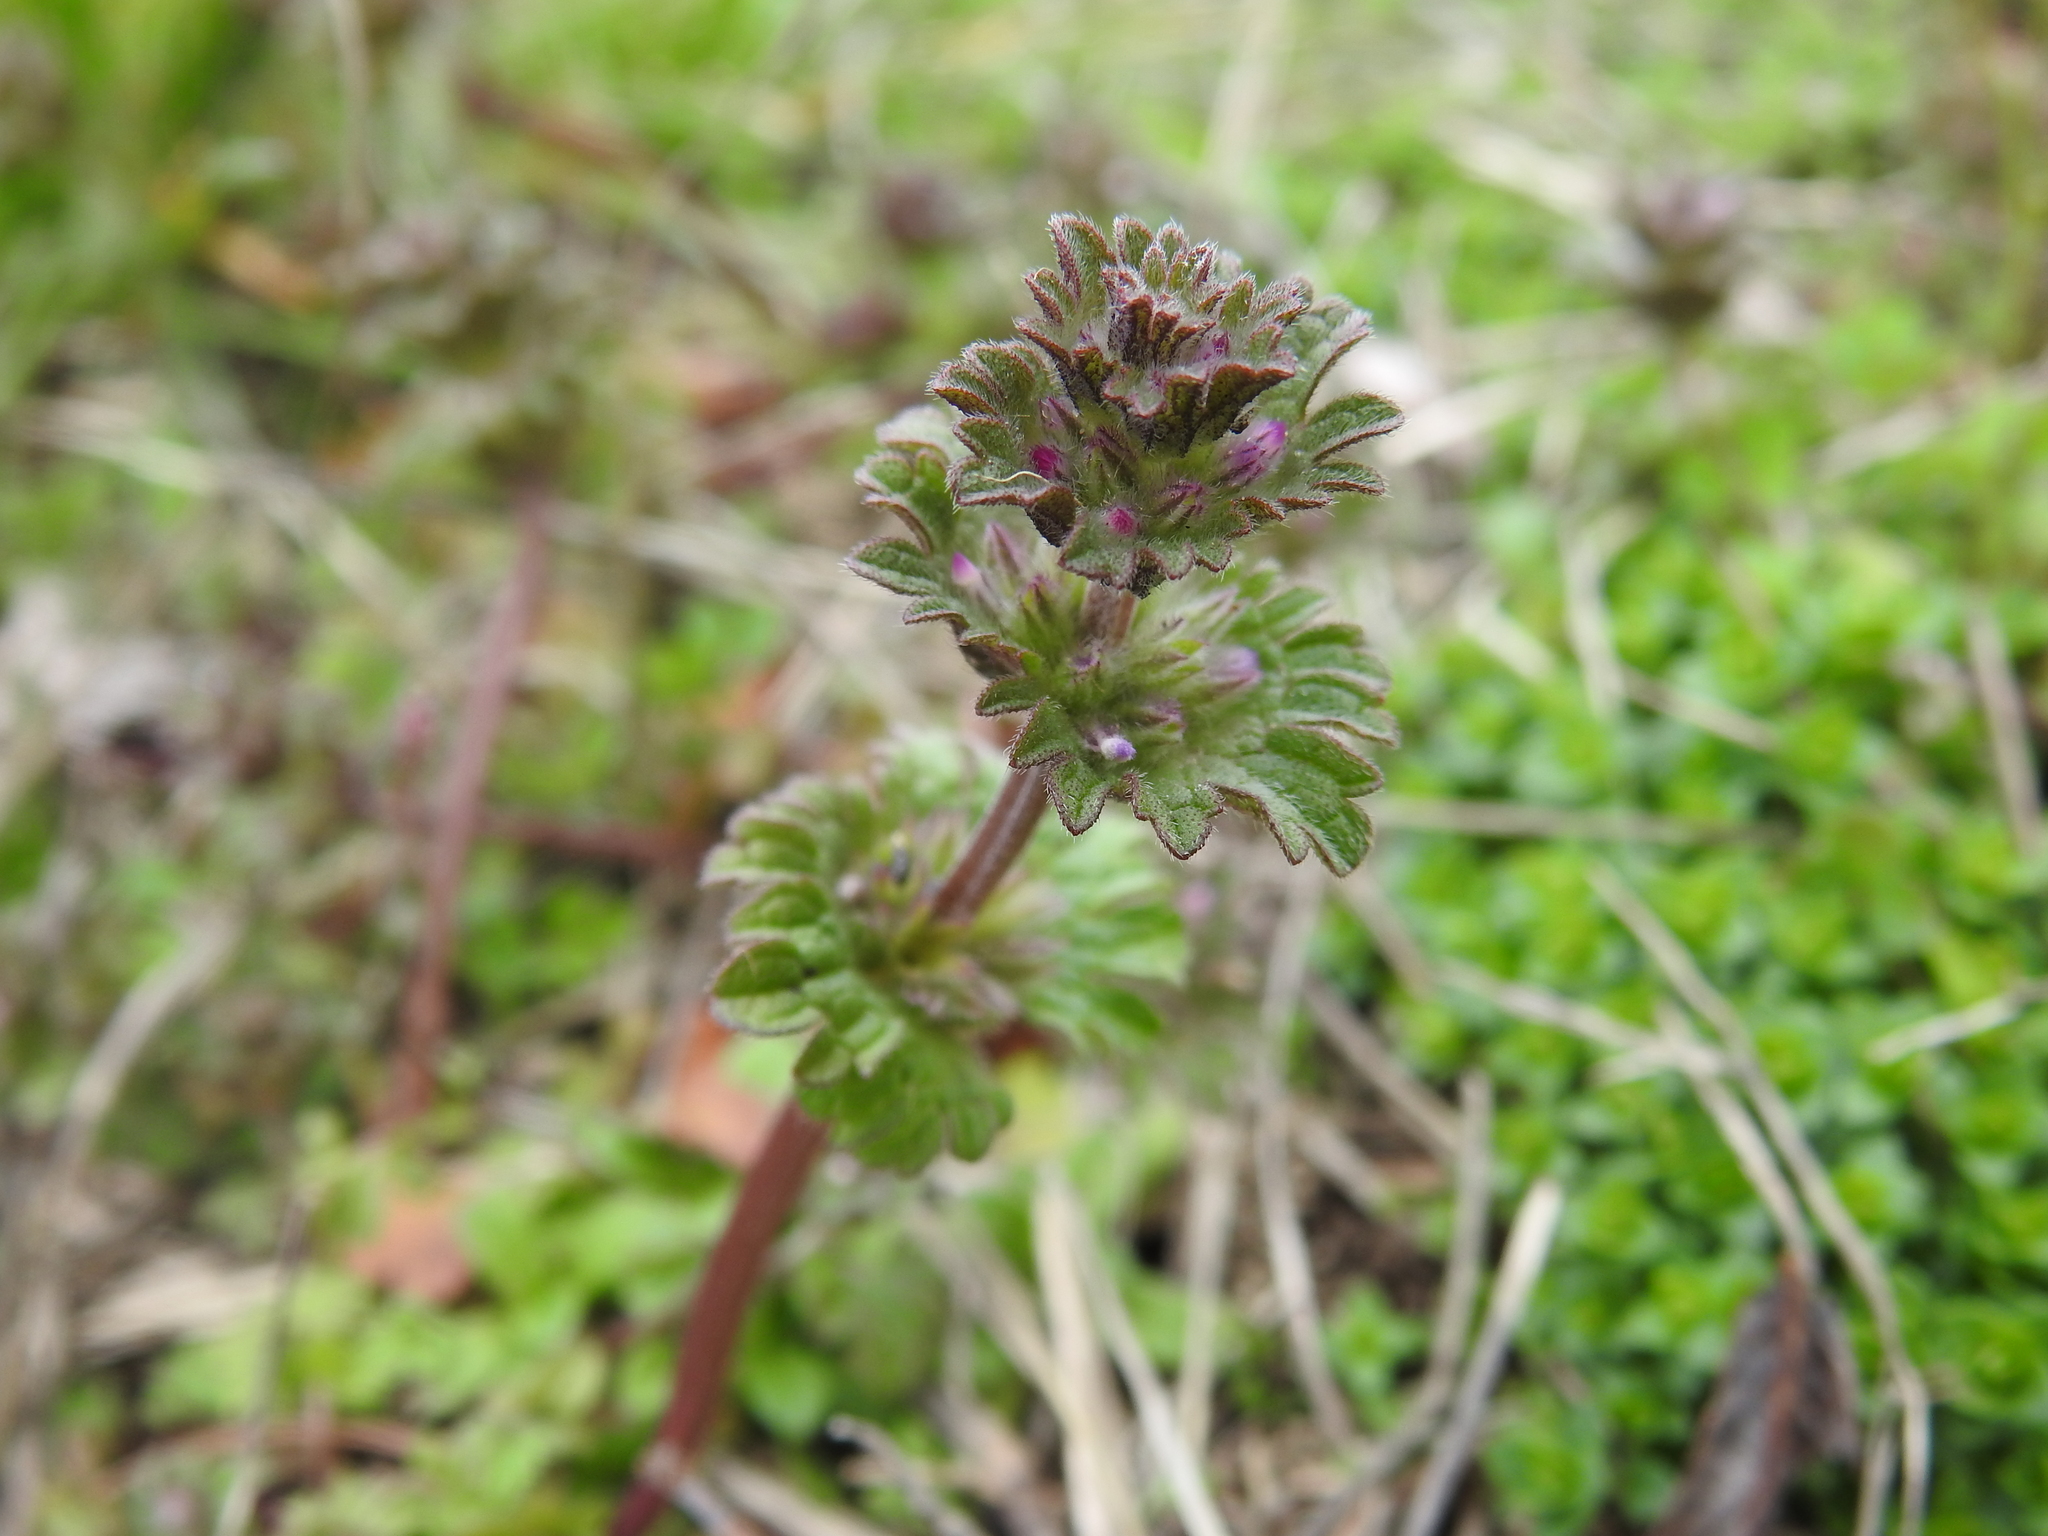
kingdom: Plantae
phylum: Tracheophyta
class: Magnoliopsida
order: Lamiales
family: Lamiaceae
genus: Lamium
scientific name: Lamium amplexicaule
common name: Henbit dead-nettle
